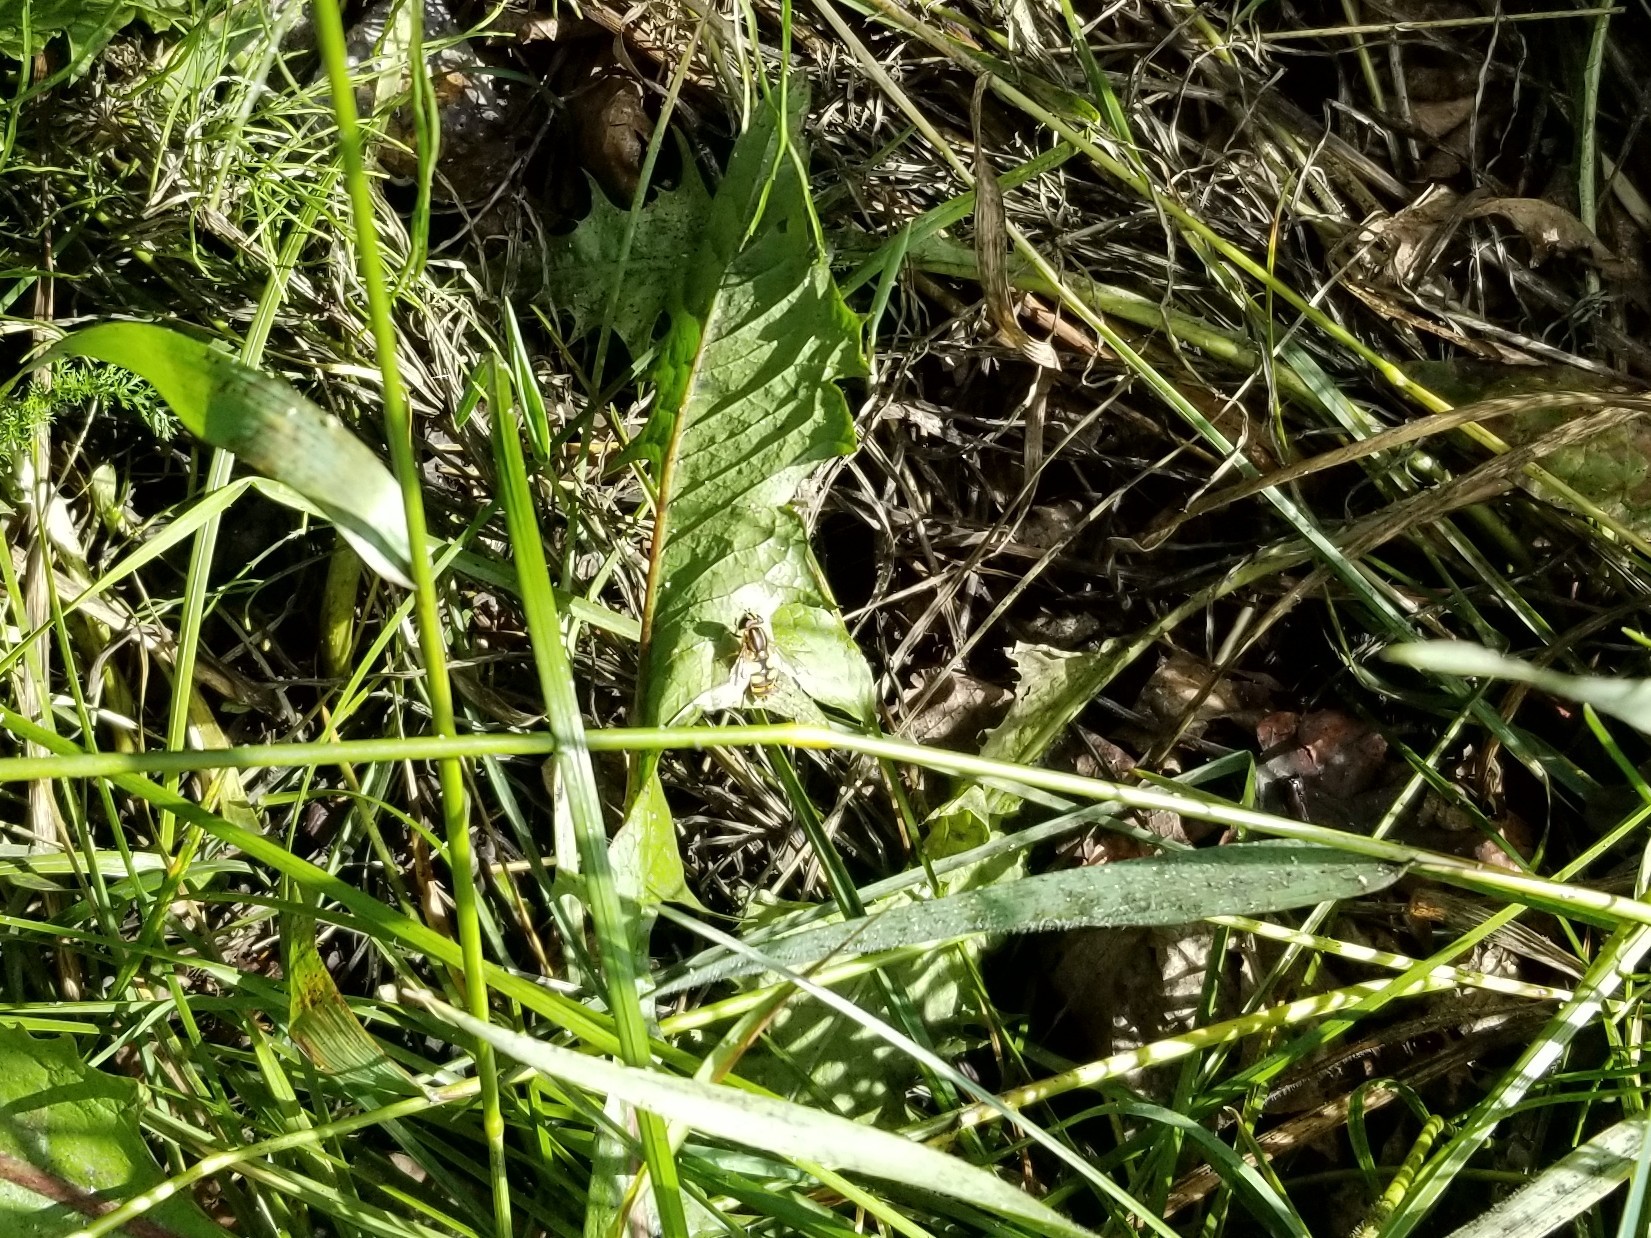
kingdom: Animalia
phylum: Arthropoda
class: Insecta
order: Diptera
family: Syrphidae
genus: Helophilus
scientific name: Helophilus hybridus
